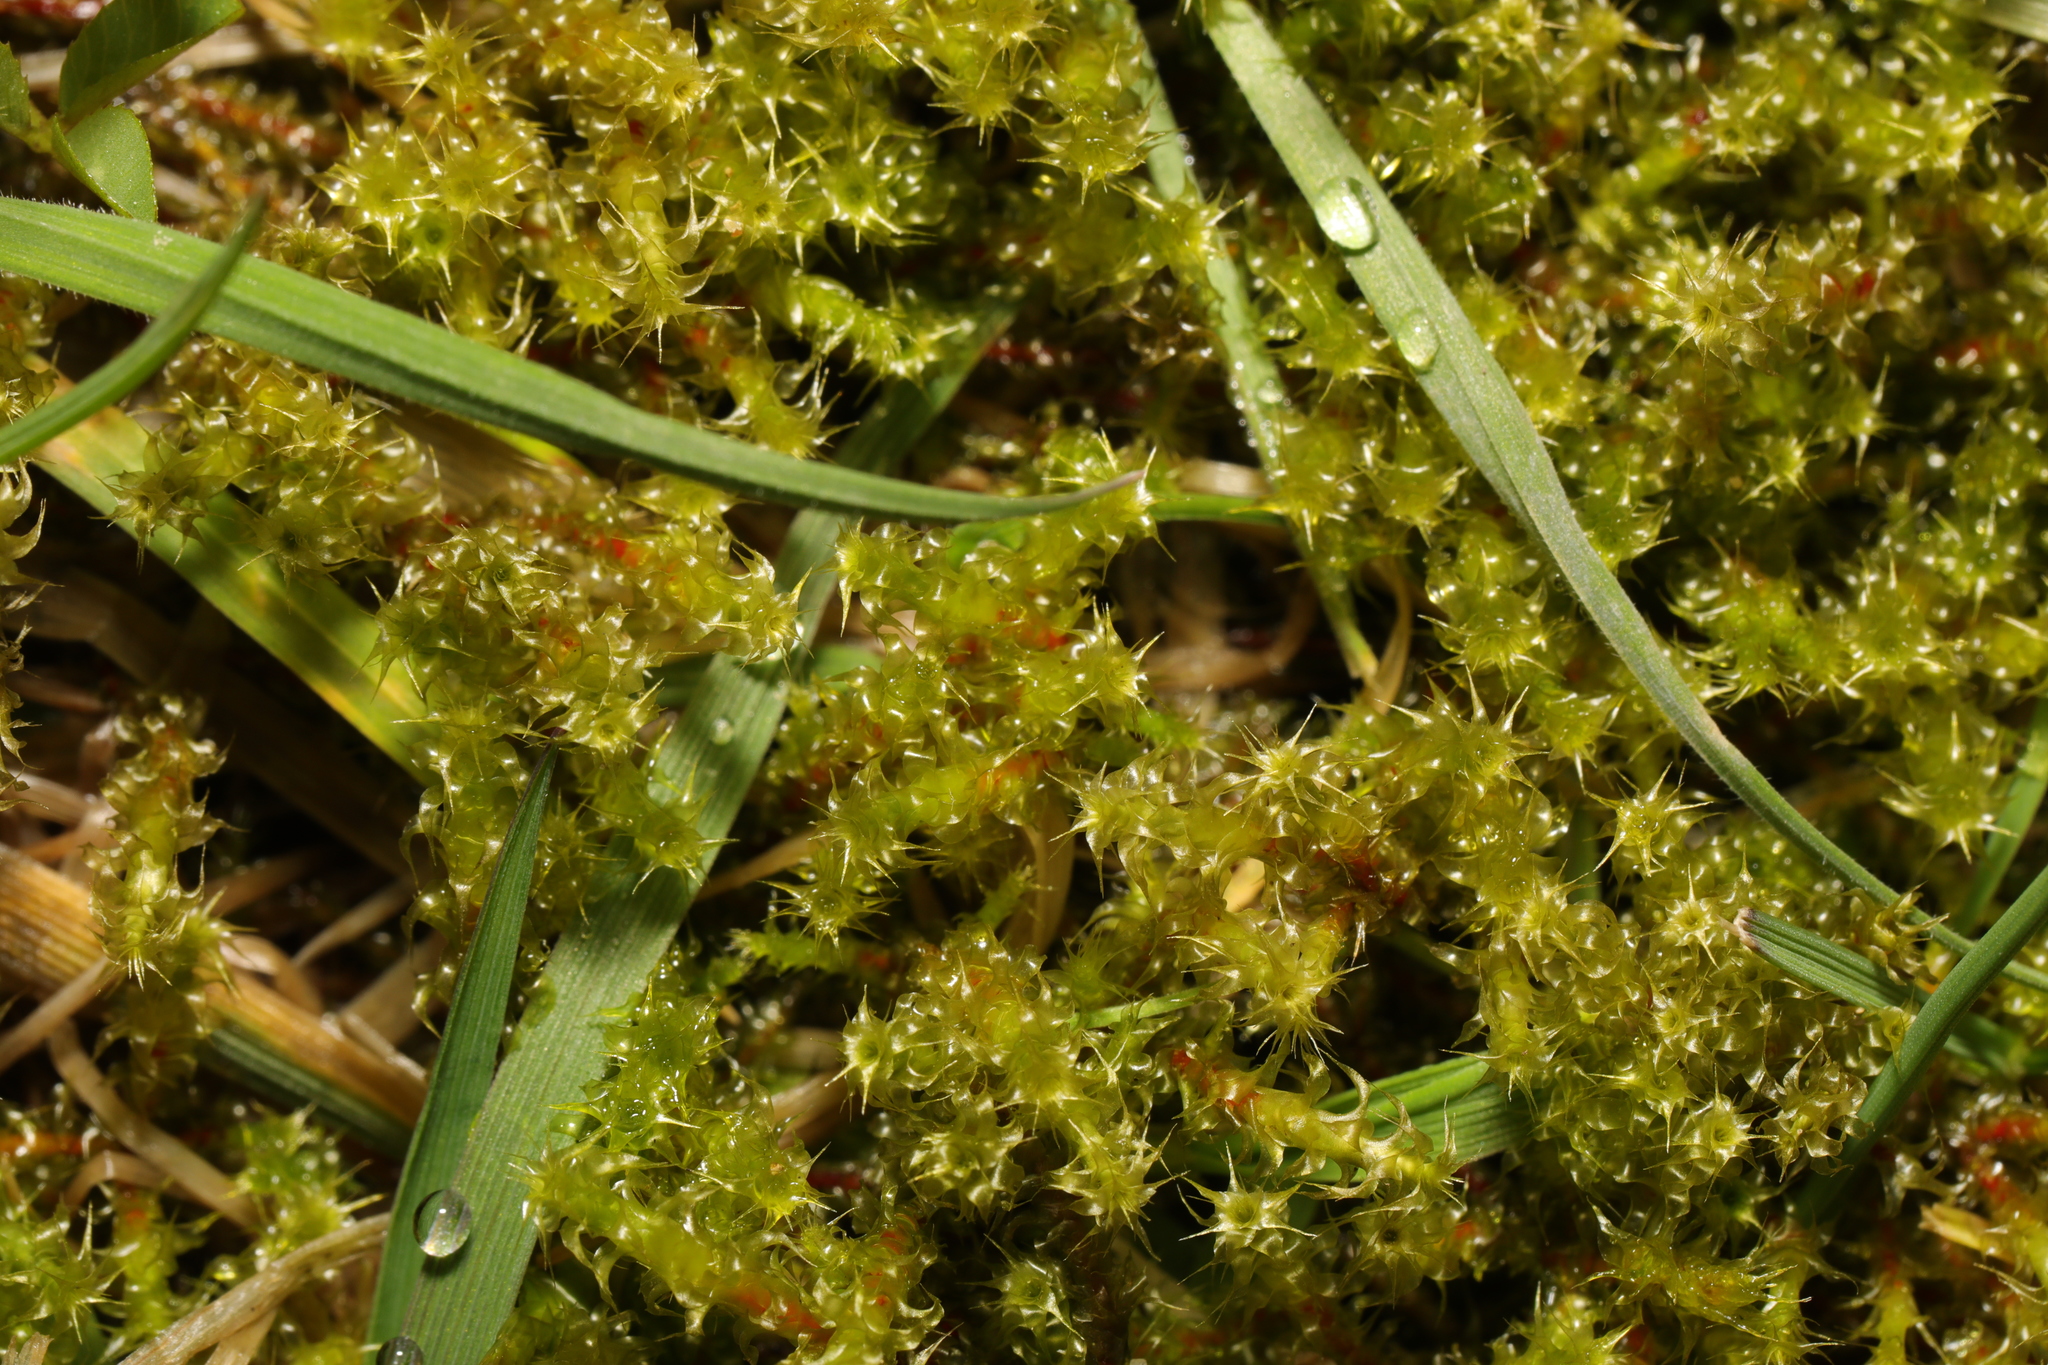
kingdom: Plantae
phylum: Bryophyta
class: Bryopsida
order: Hypnales
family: Hylocomiaceae
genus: Rhytidiadelphus
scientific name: Rhytidiadelphus squarrosus
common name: Springy turf-moss
